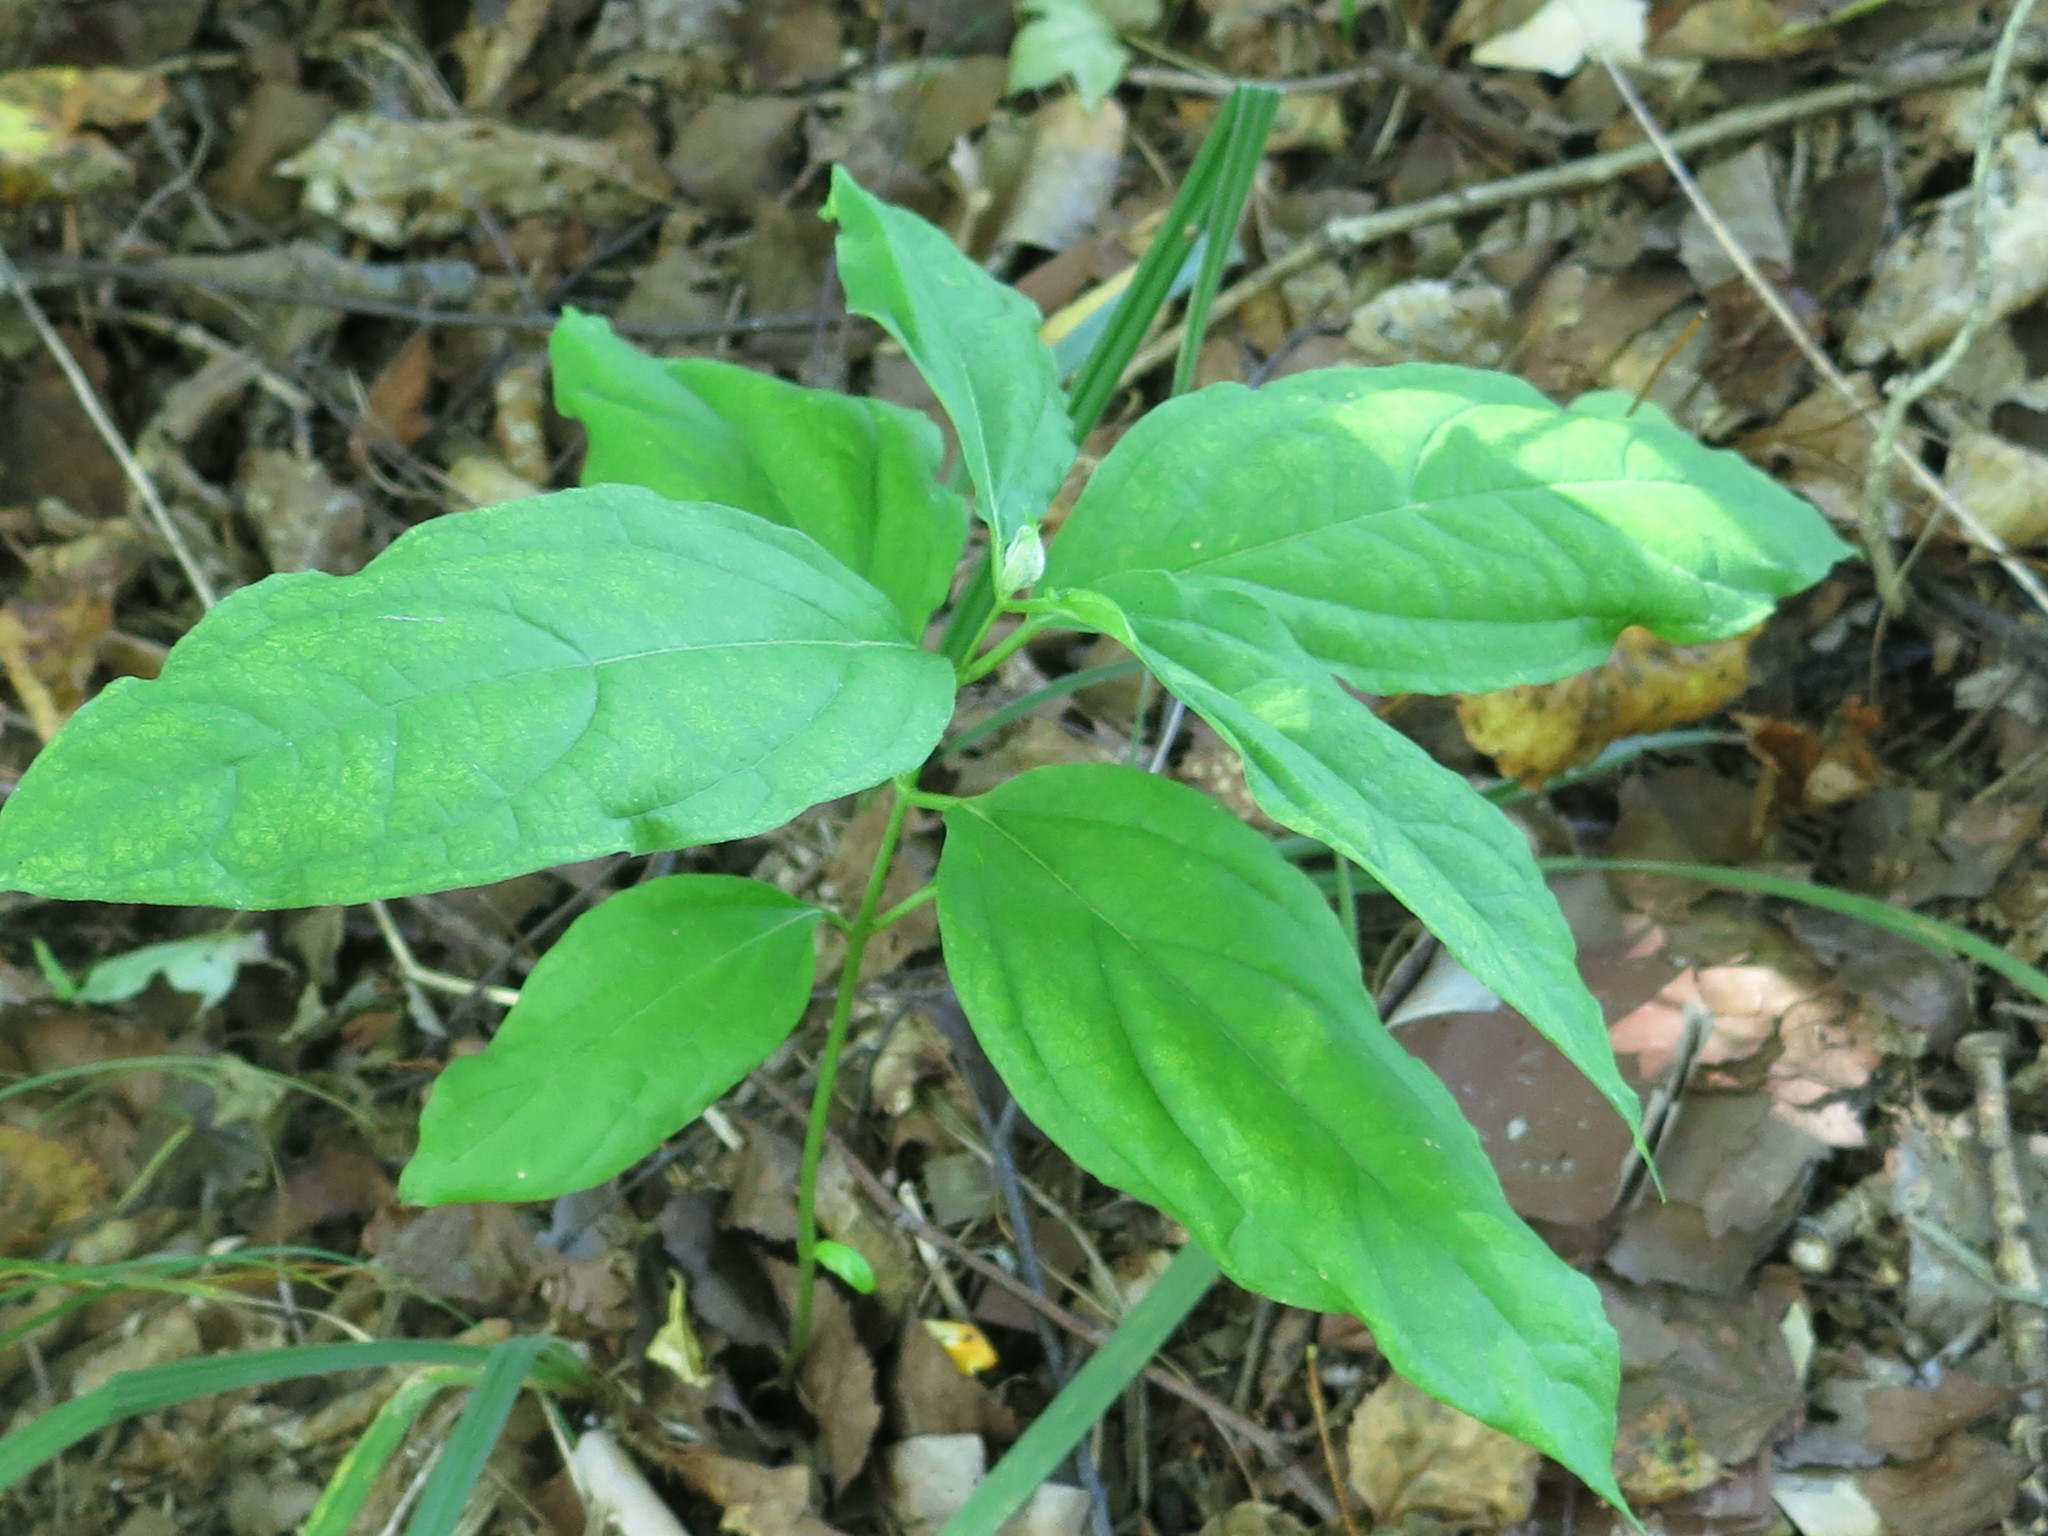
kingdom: Plantae
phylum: Tracheophyta
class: Magnoliopsida
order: Gentianales
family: Apocynaceae
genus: Vincetoxicum
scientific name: Vincetoxicum ascyrifolium
